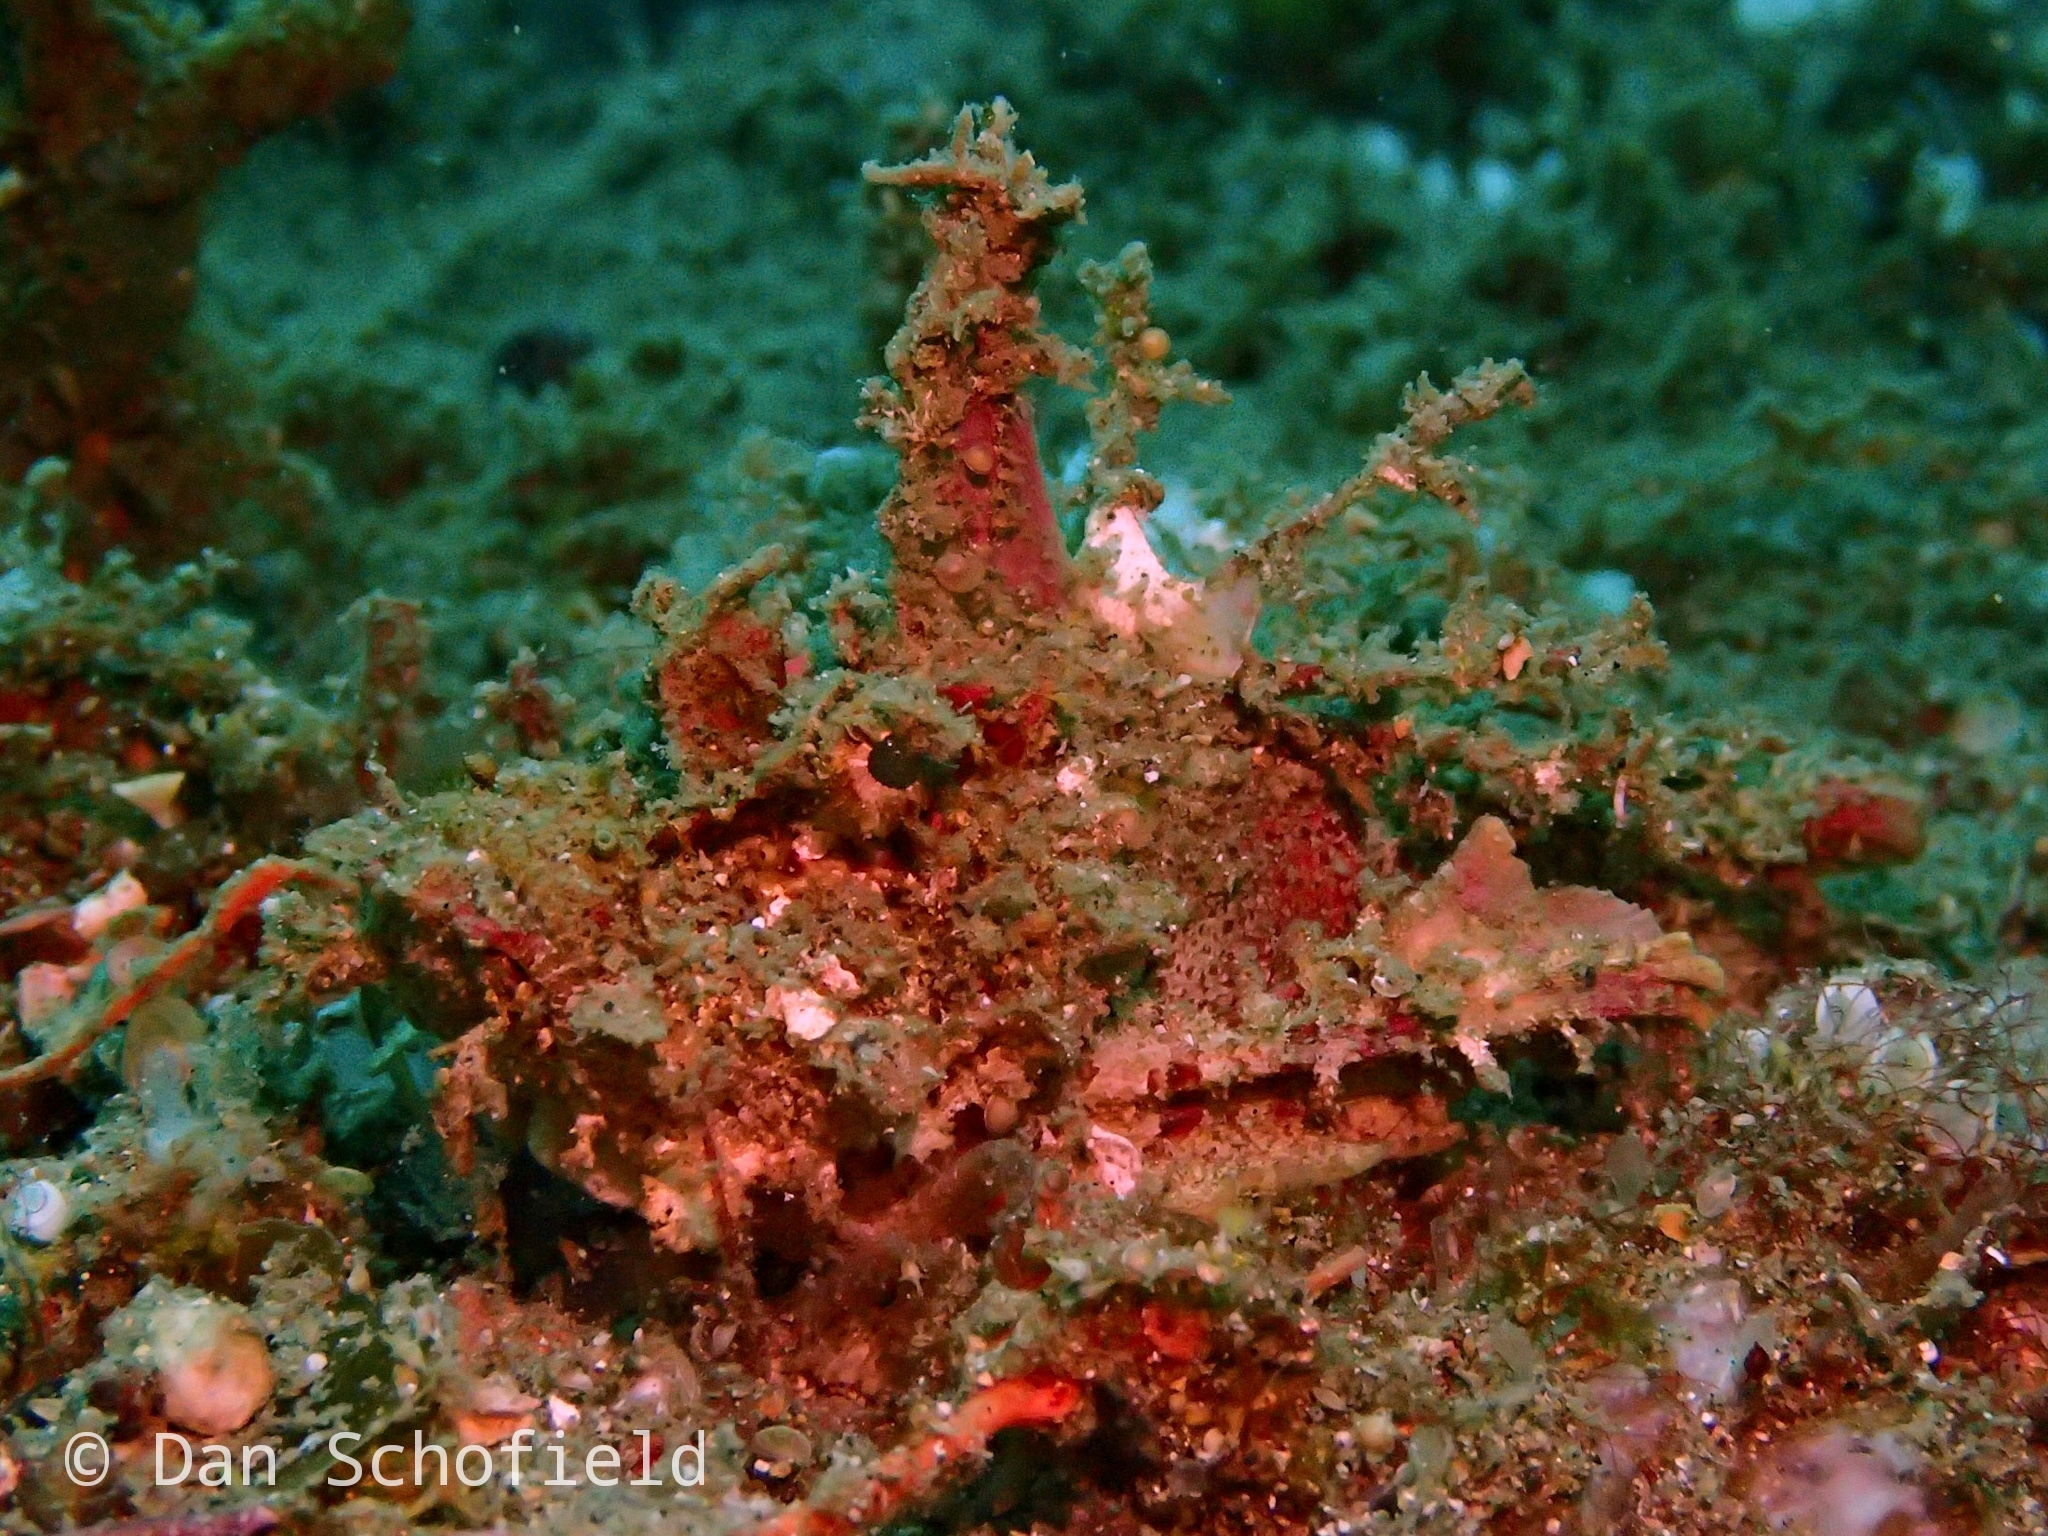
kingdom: Animalia
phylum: Chordata
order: Scorpaeniformes
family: Synanceiidae
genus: Inimicus
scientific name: Inimicus didactylus
